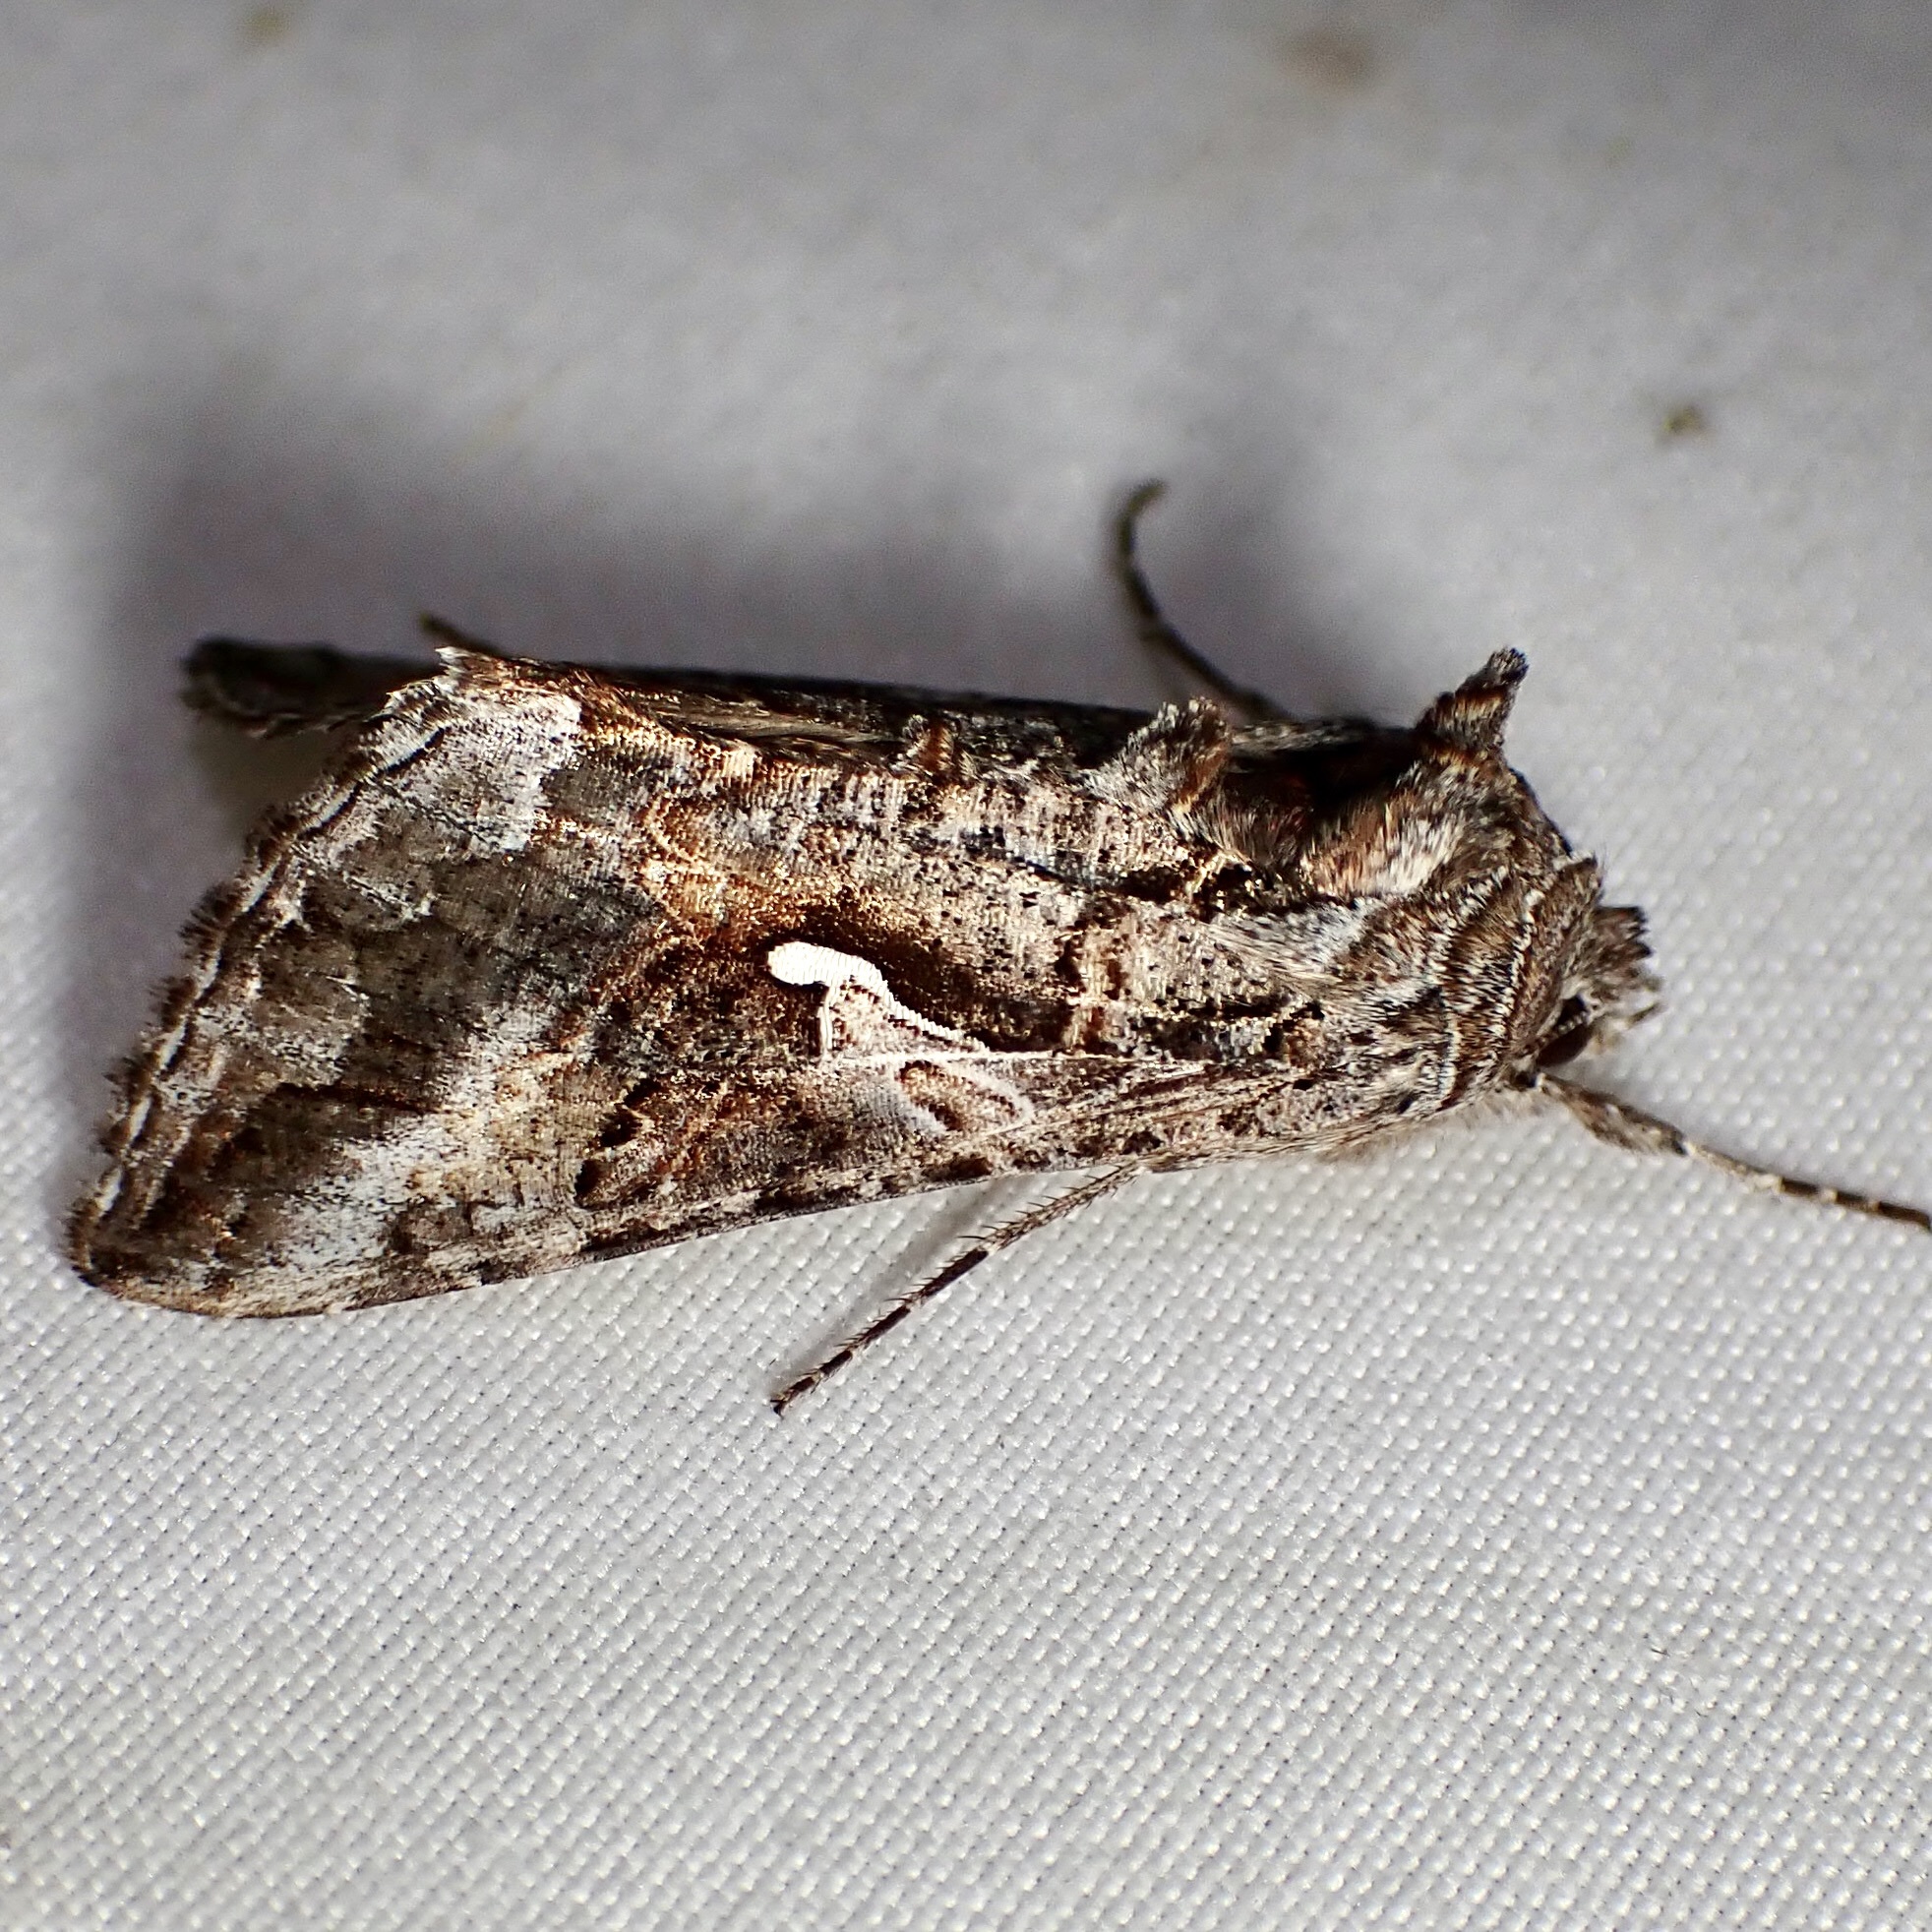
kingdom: Animalia
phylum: Arthropoda
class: Insecta
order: Lepidoptera
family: Noctuidae
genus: Autographa
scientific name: Autographa californica
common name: Alfalfa looper
